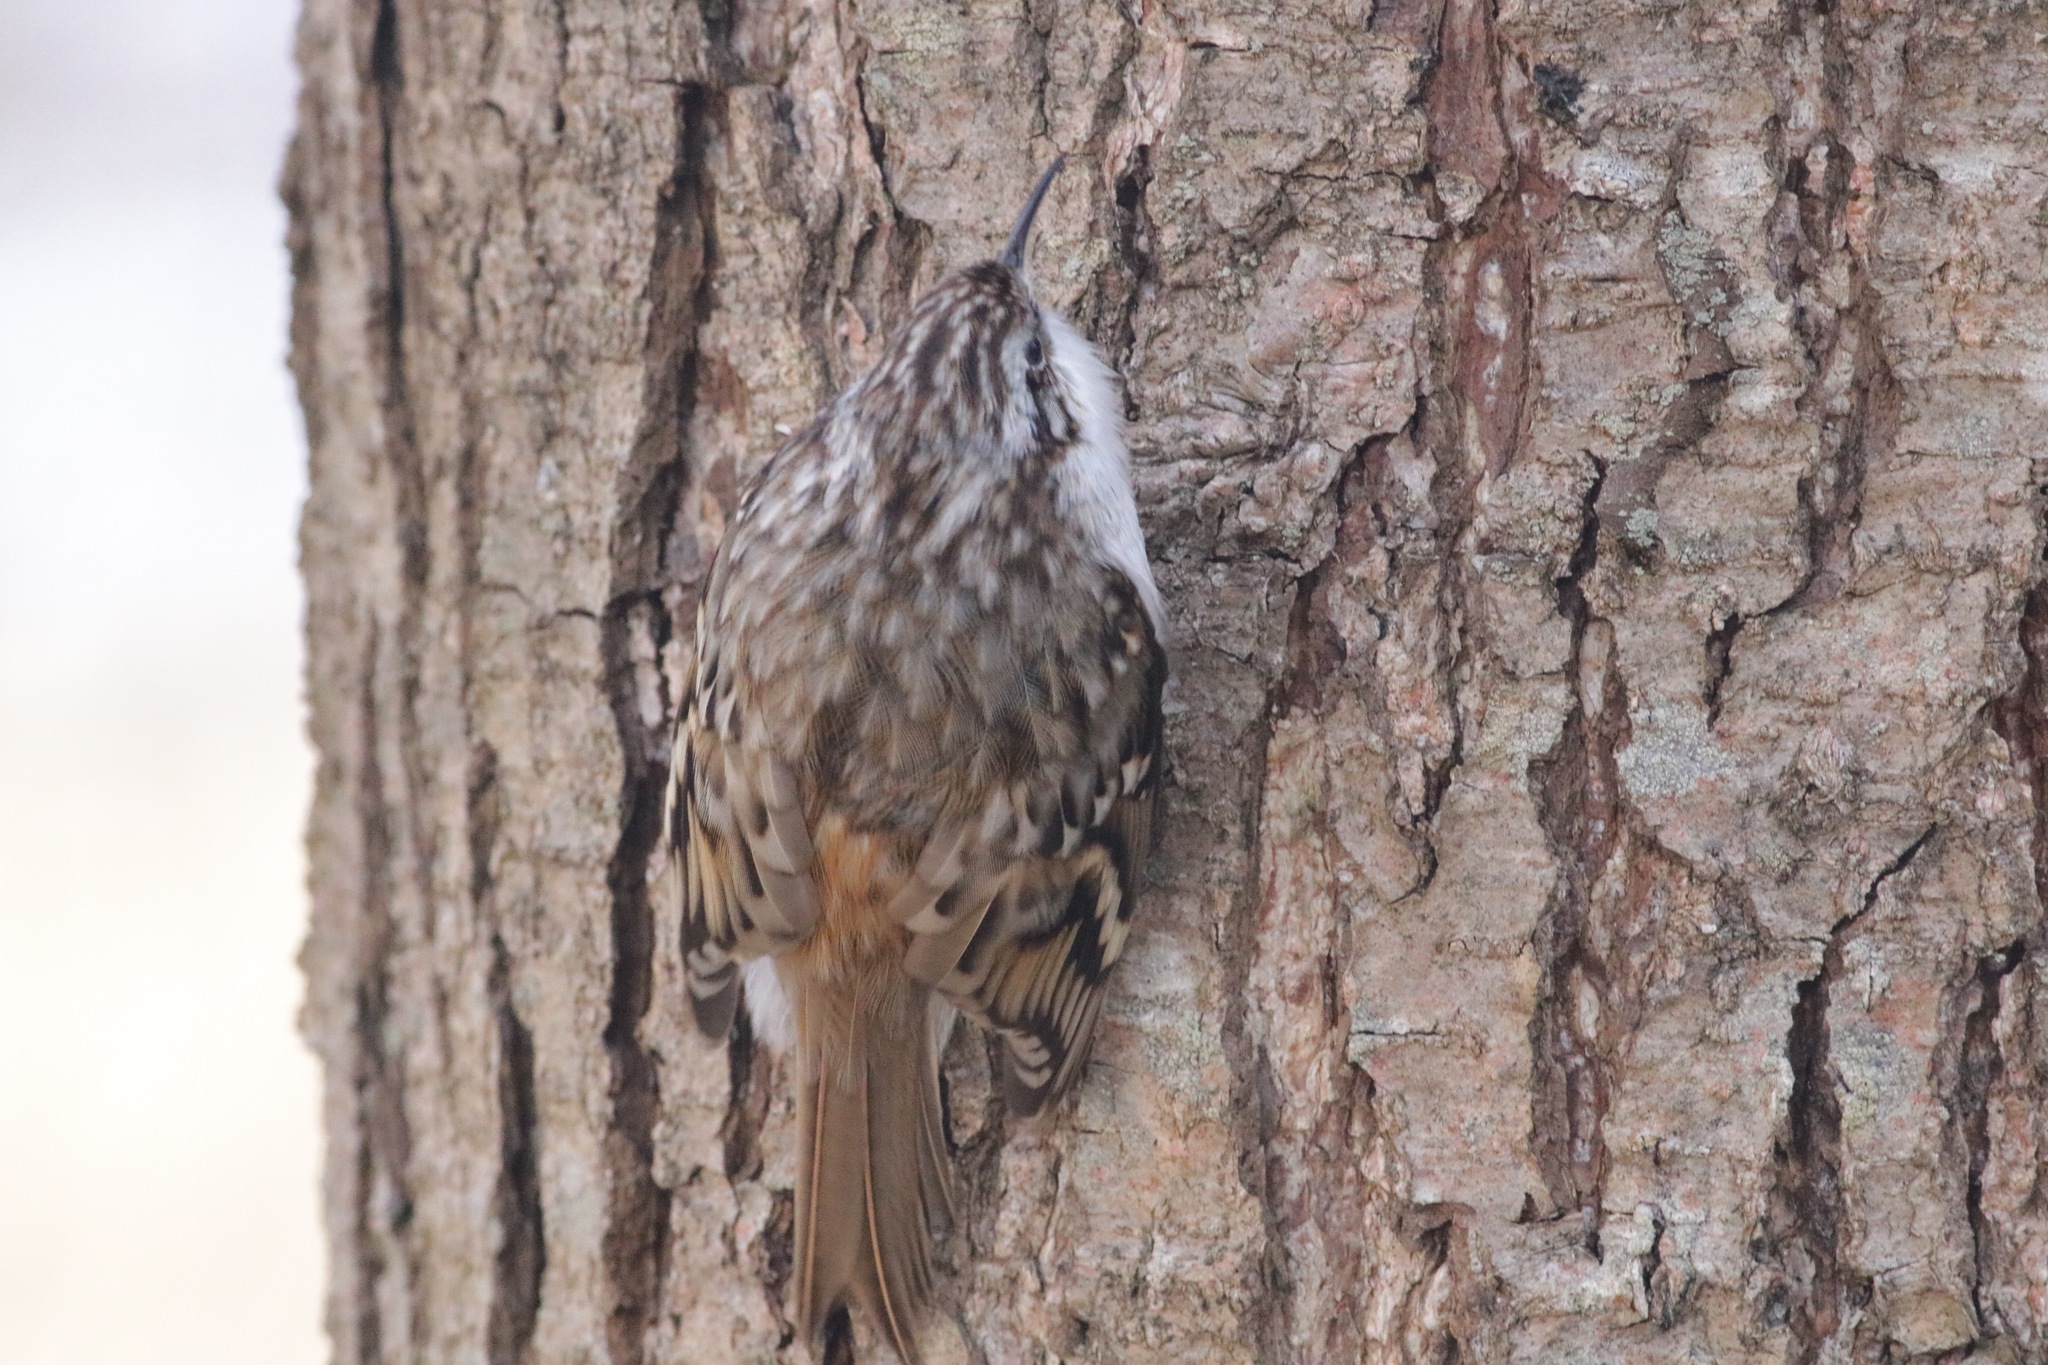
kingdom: Animalia
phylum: Chordata
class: Aves
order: Passeriformes
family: Certhiidae
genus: Certhia
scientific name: Certhia familiaris
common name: Eurasian treecreeper
